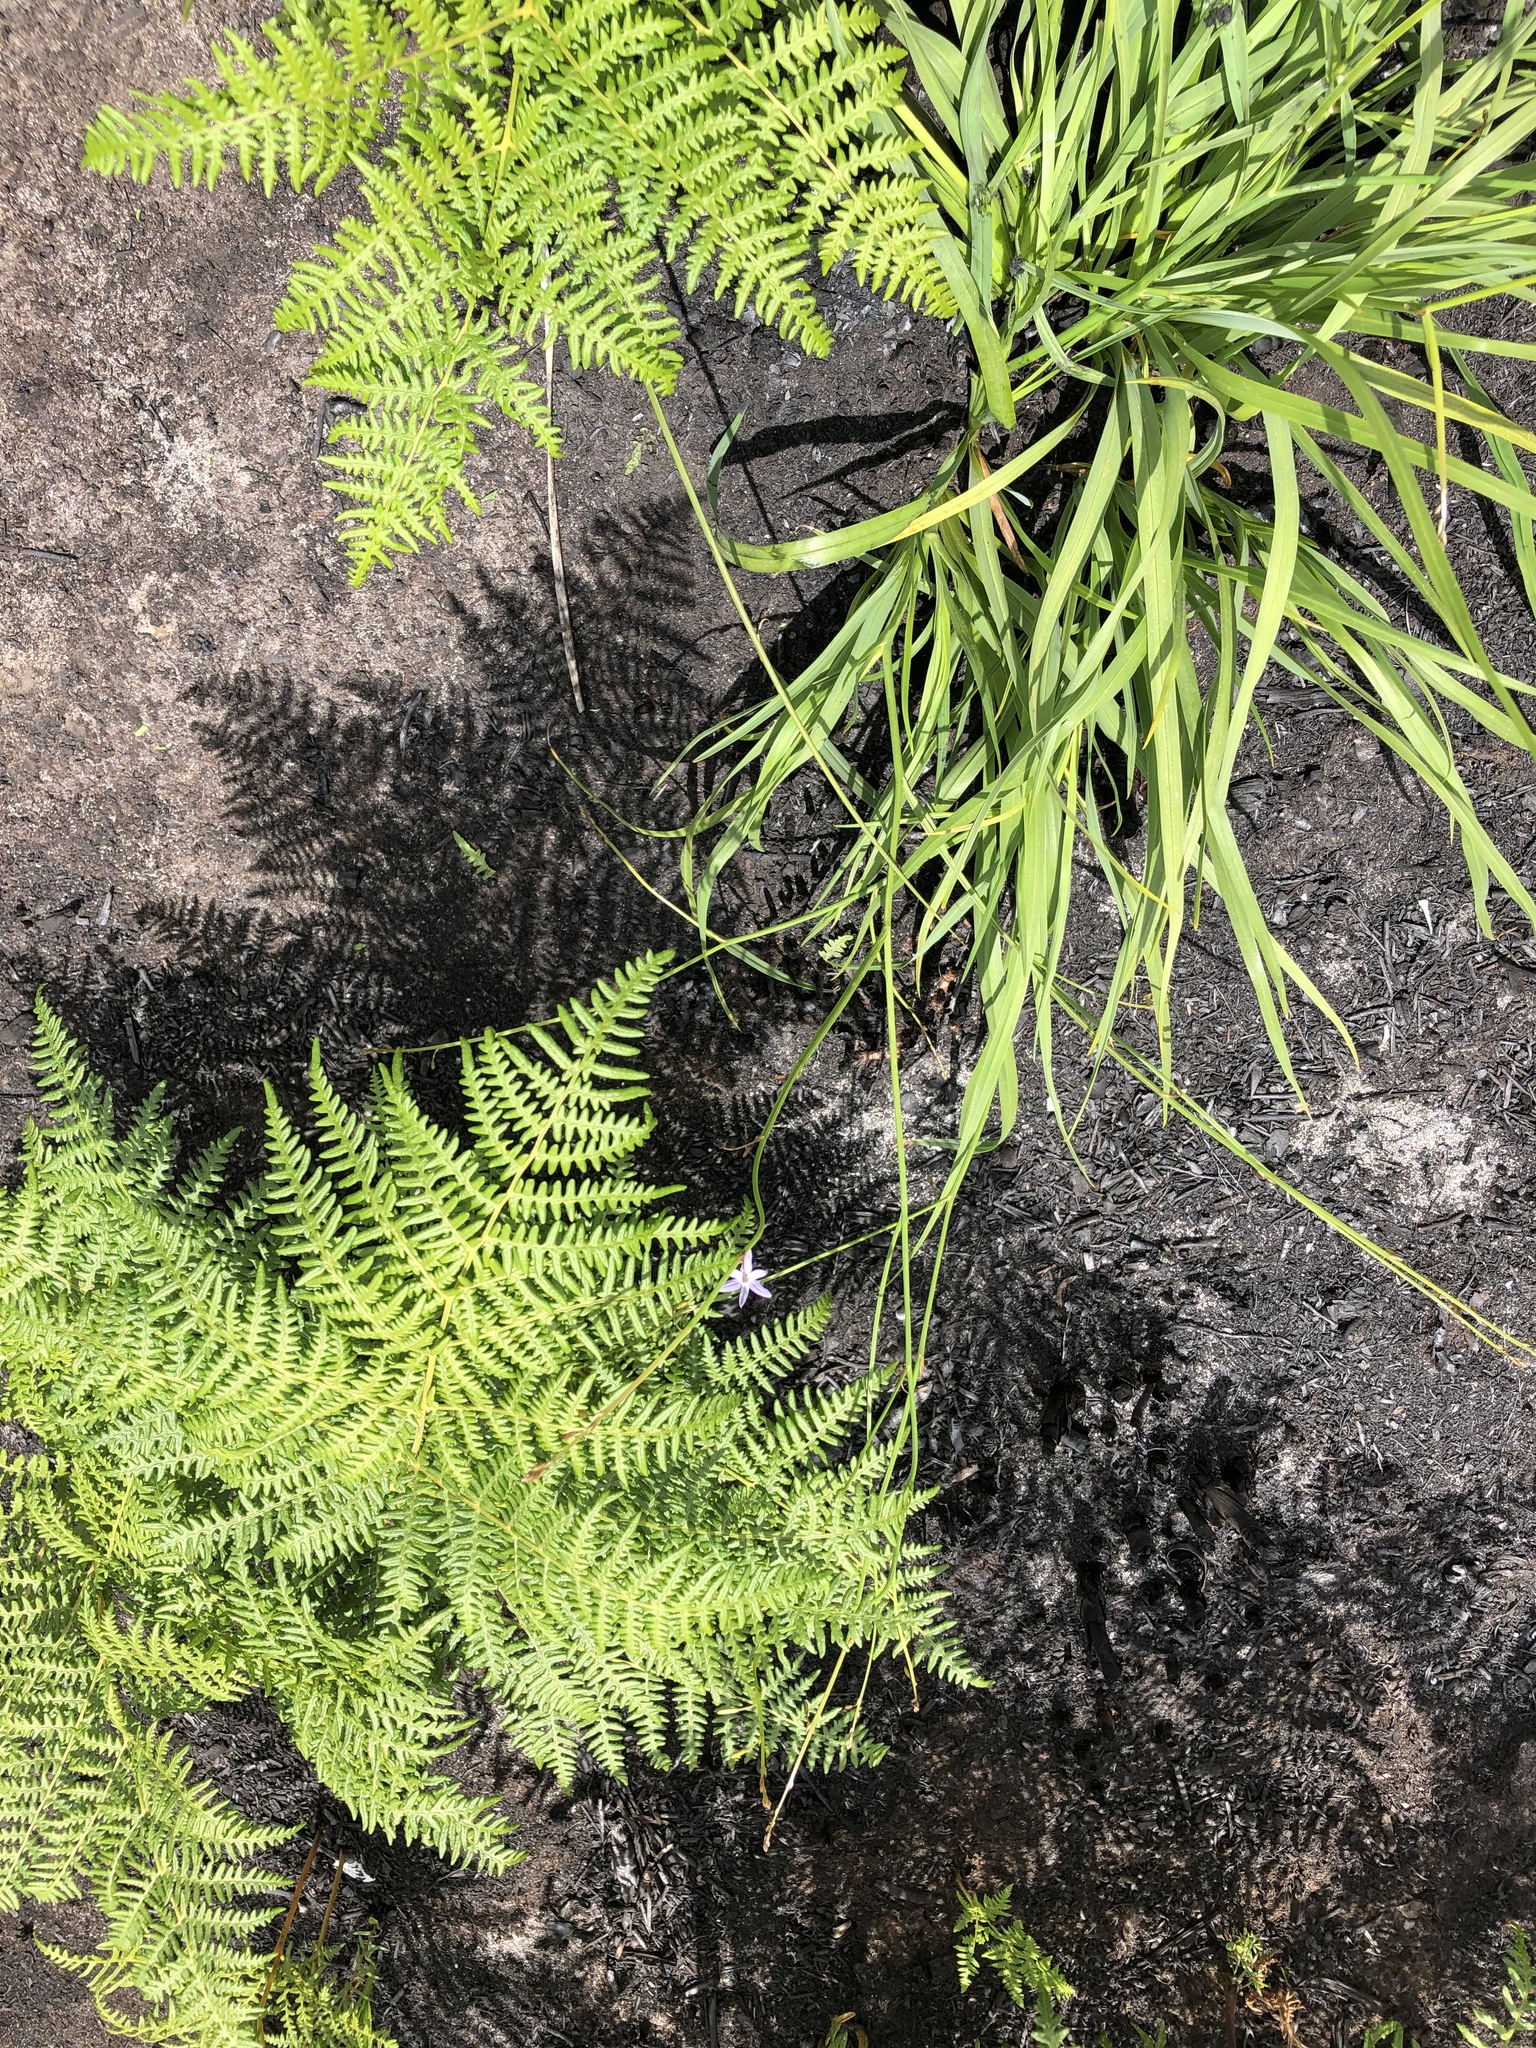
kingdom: Plantae
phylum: Tracheophyta
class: Liliopsida
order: Asparagales
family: Asphodelaceae
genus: Caesia
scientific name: Caesia contorta
